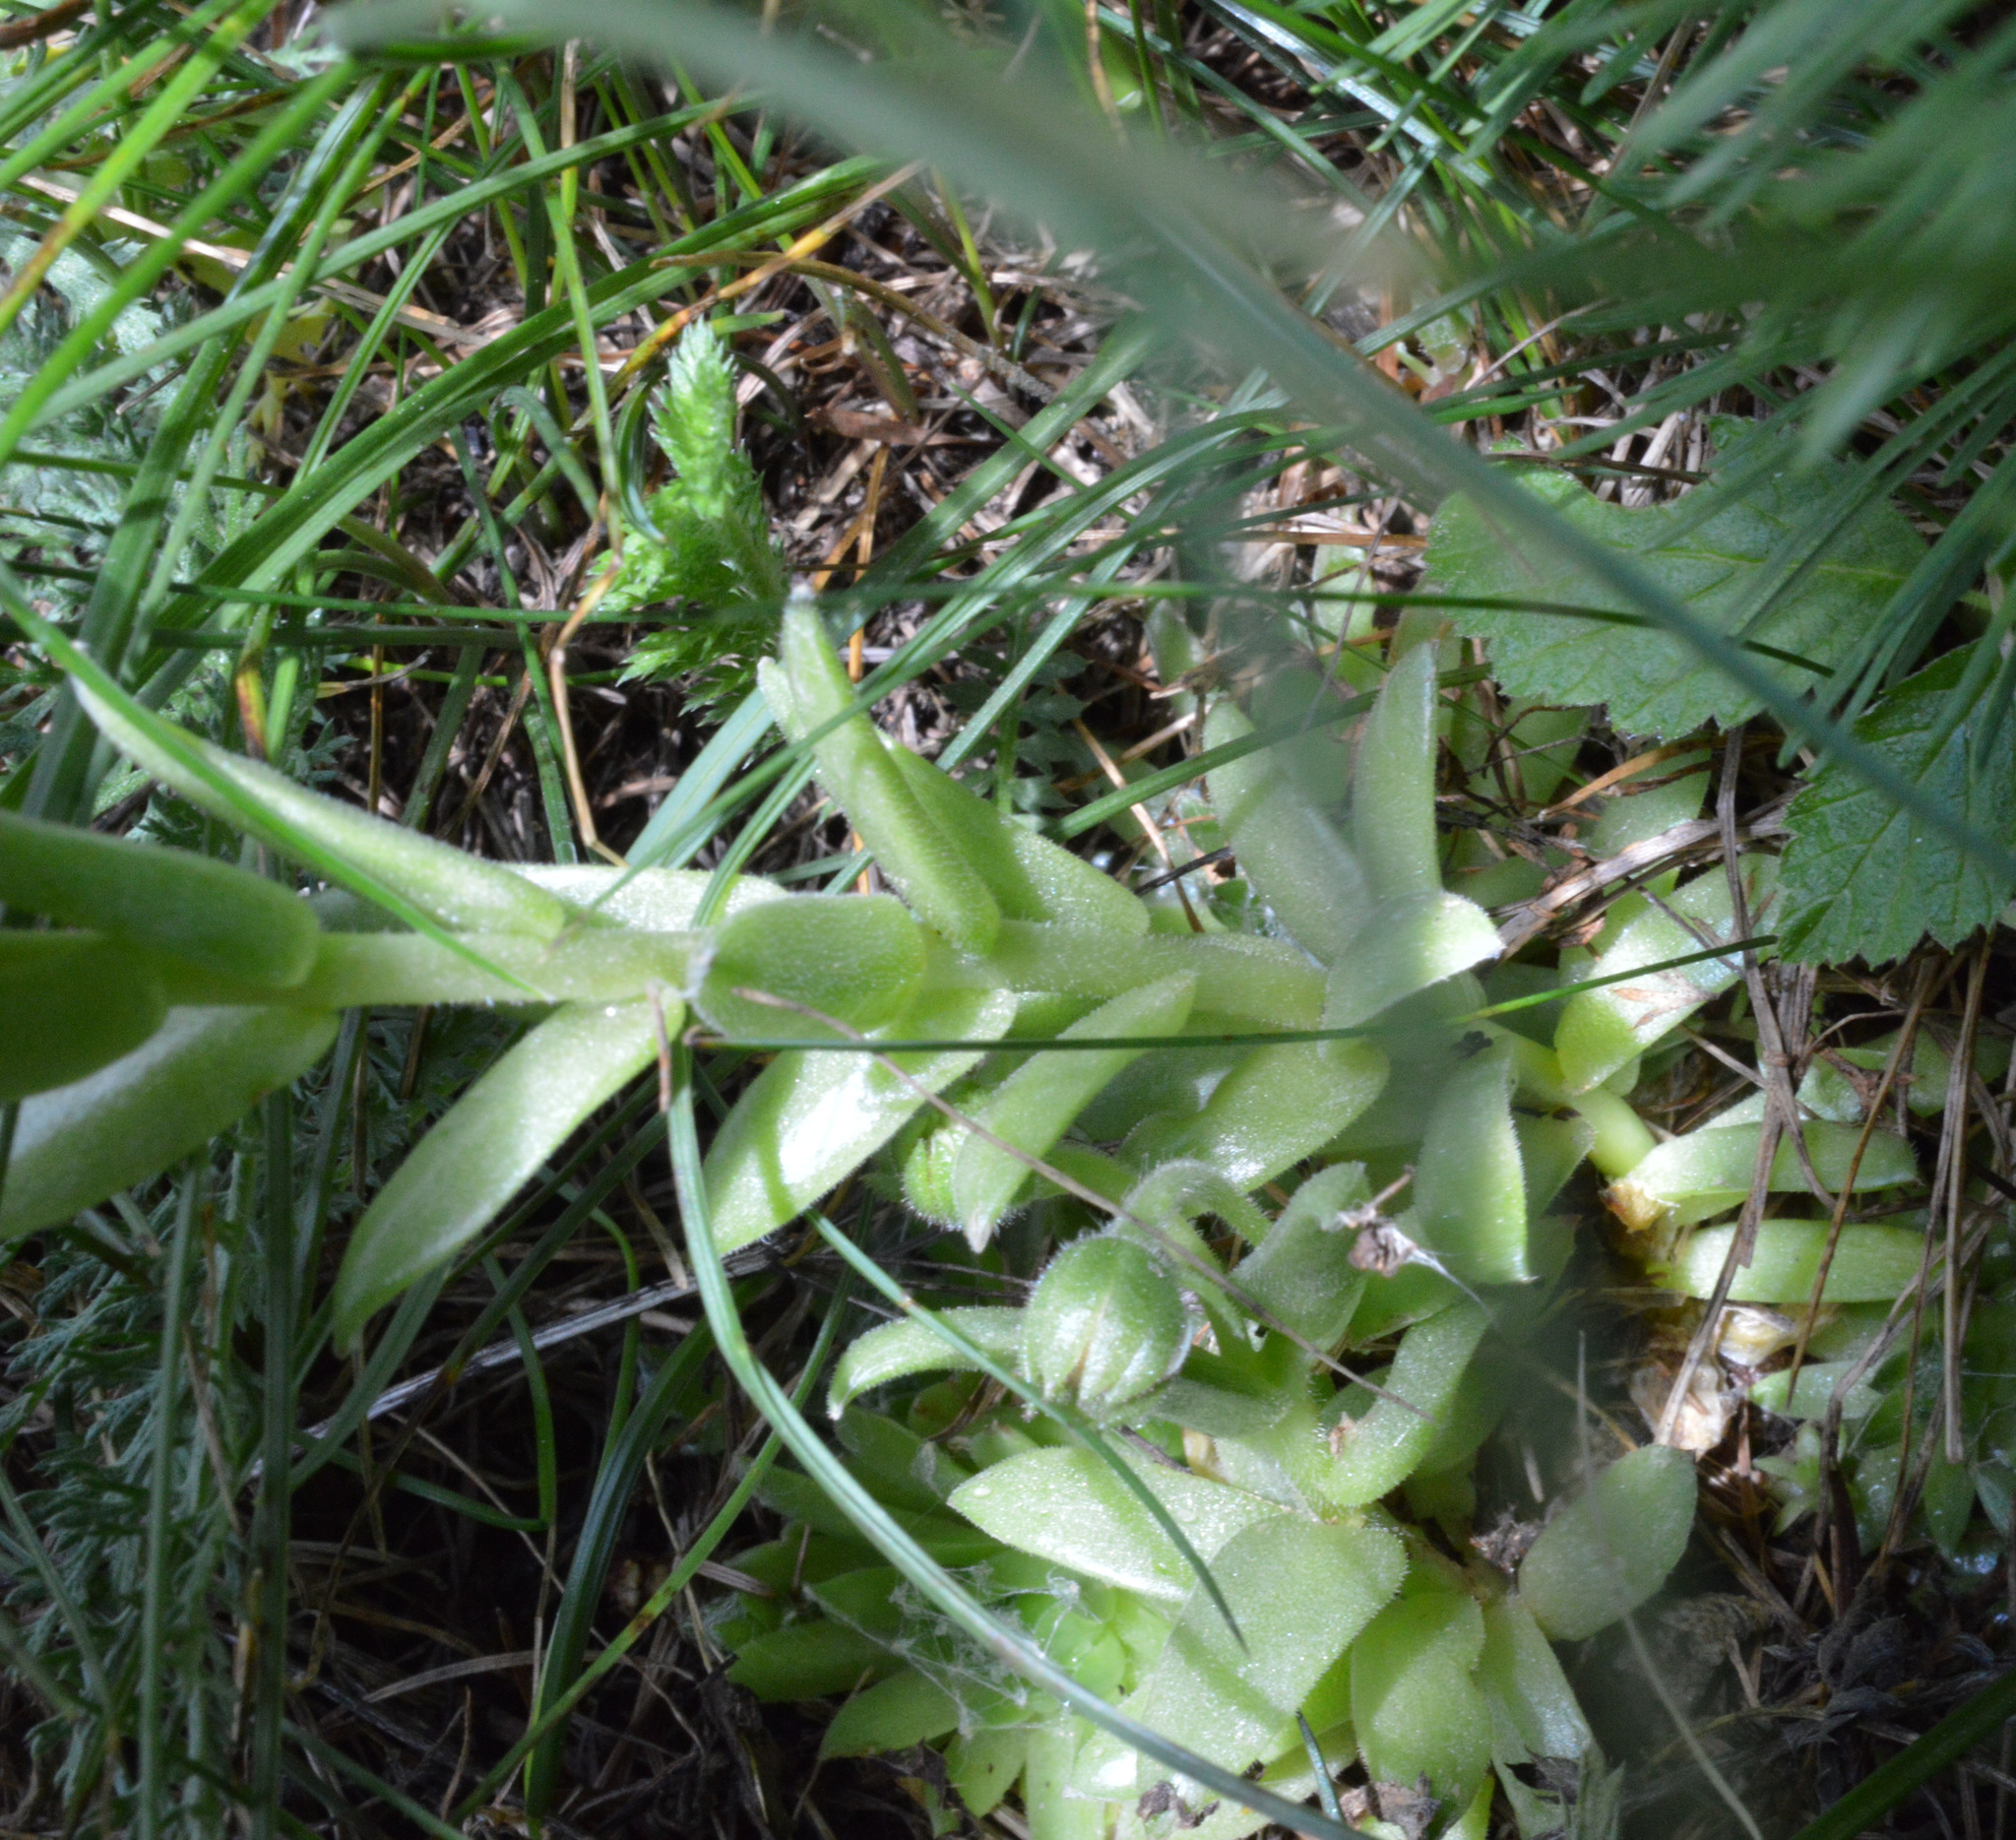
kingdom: Plantae
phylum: Tracheophyta
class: Magnoliopsida
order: Saxifragales
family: Crassulaceae
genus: Sempervivum
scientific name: Sempervivum arachnoideum
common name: Cobweb house-leek
